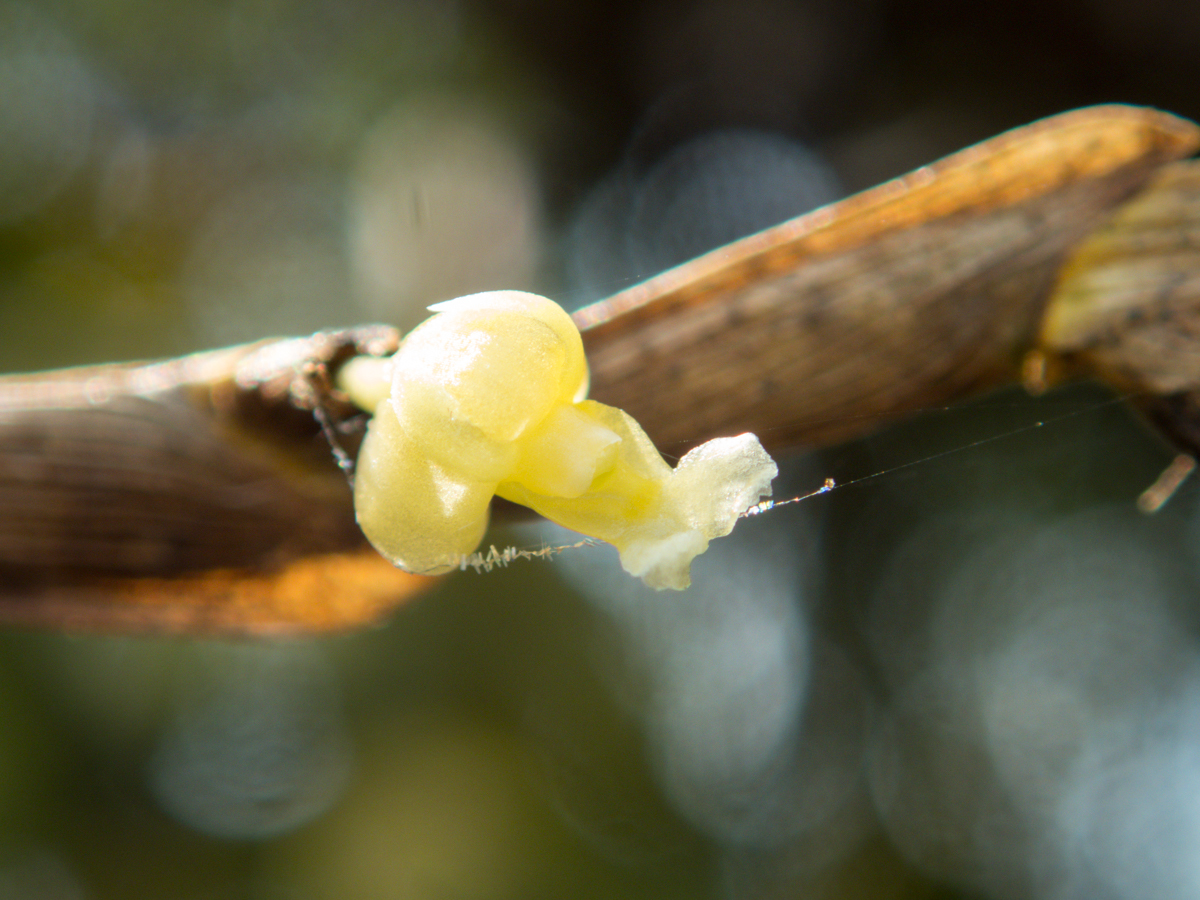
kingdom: Plantae
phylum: Tracheophyta
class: Liliopsida
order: Asparagales
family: Orchidaceae
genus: Dendrobium
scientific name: Dendrobium aloifolium
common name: Aloe-like dendrobium
